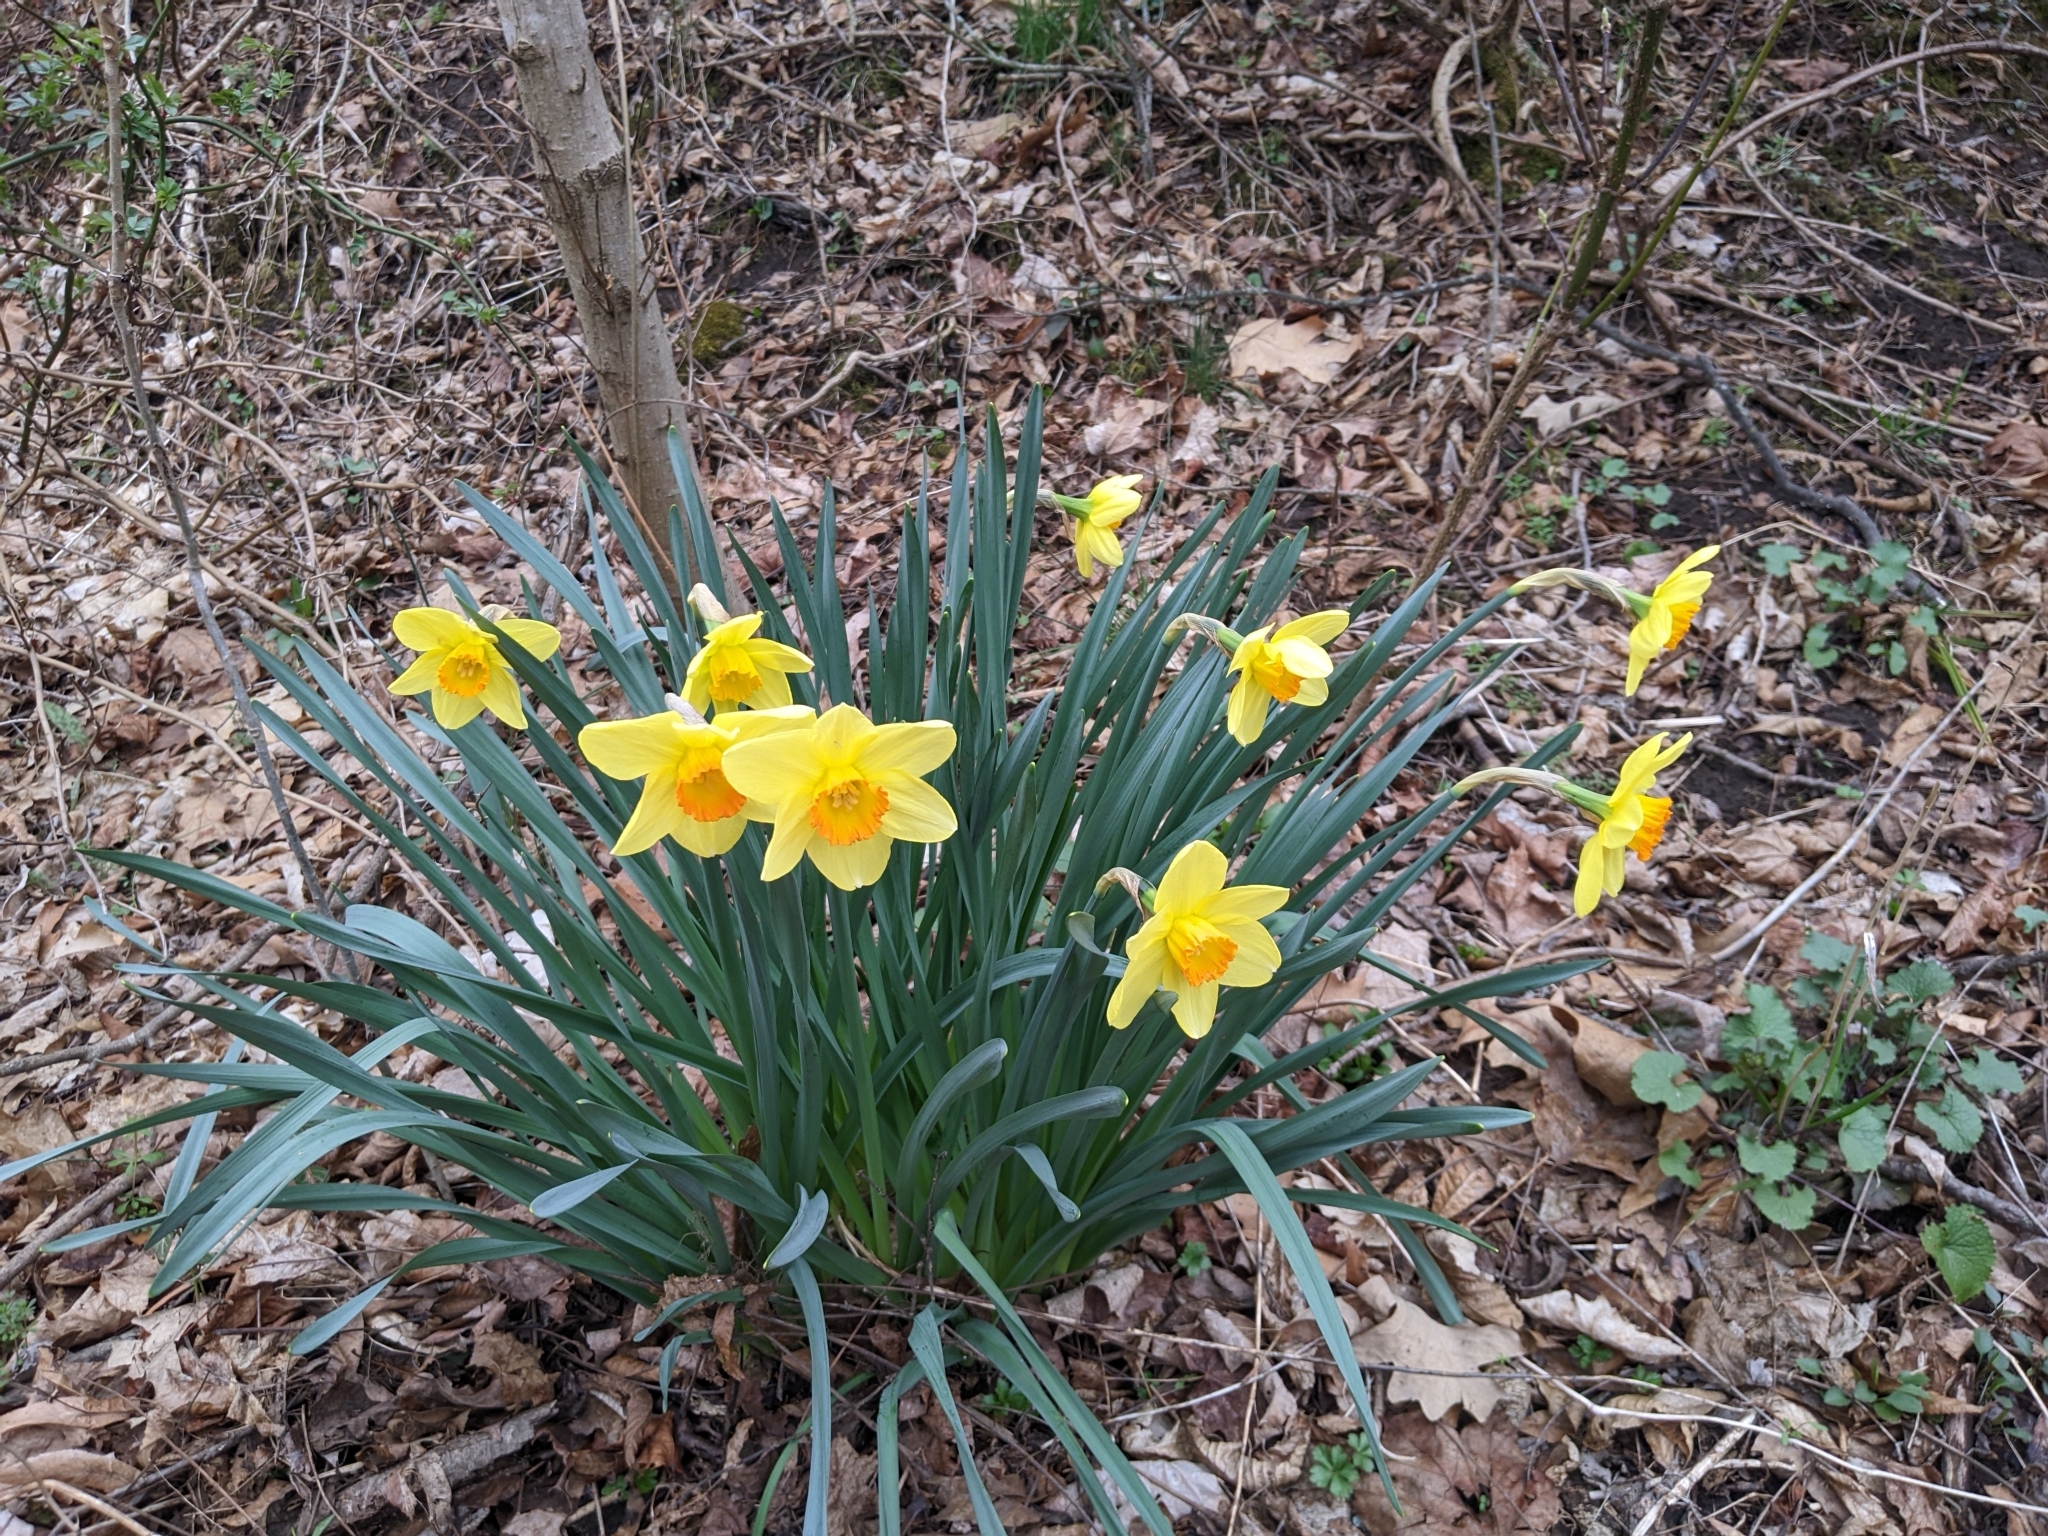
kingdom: Plantae
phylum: Tracheophyta
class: Liliopsida
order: Asparagales
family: Amaryllidaceae
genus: Narcissus
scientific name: Narcissus
